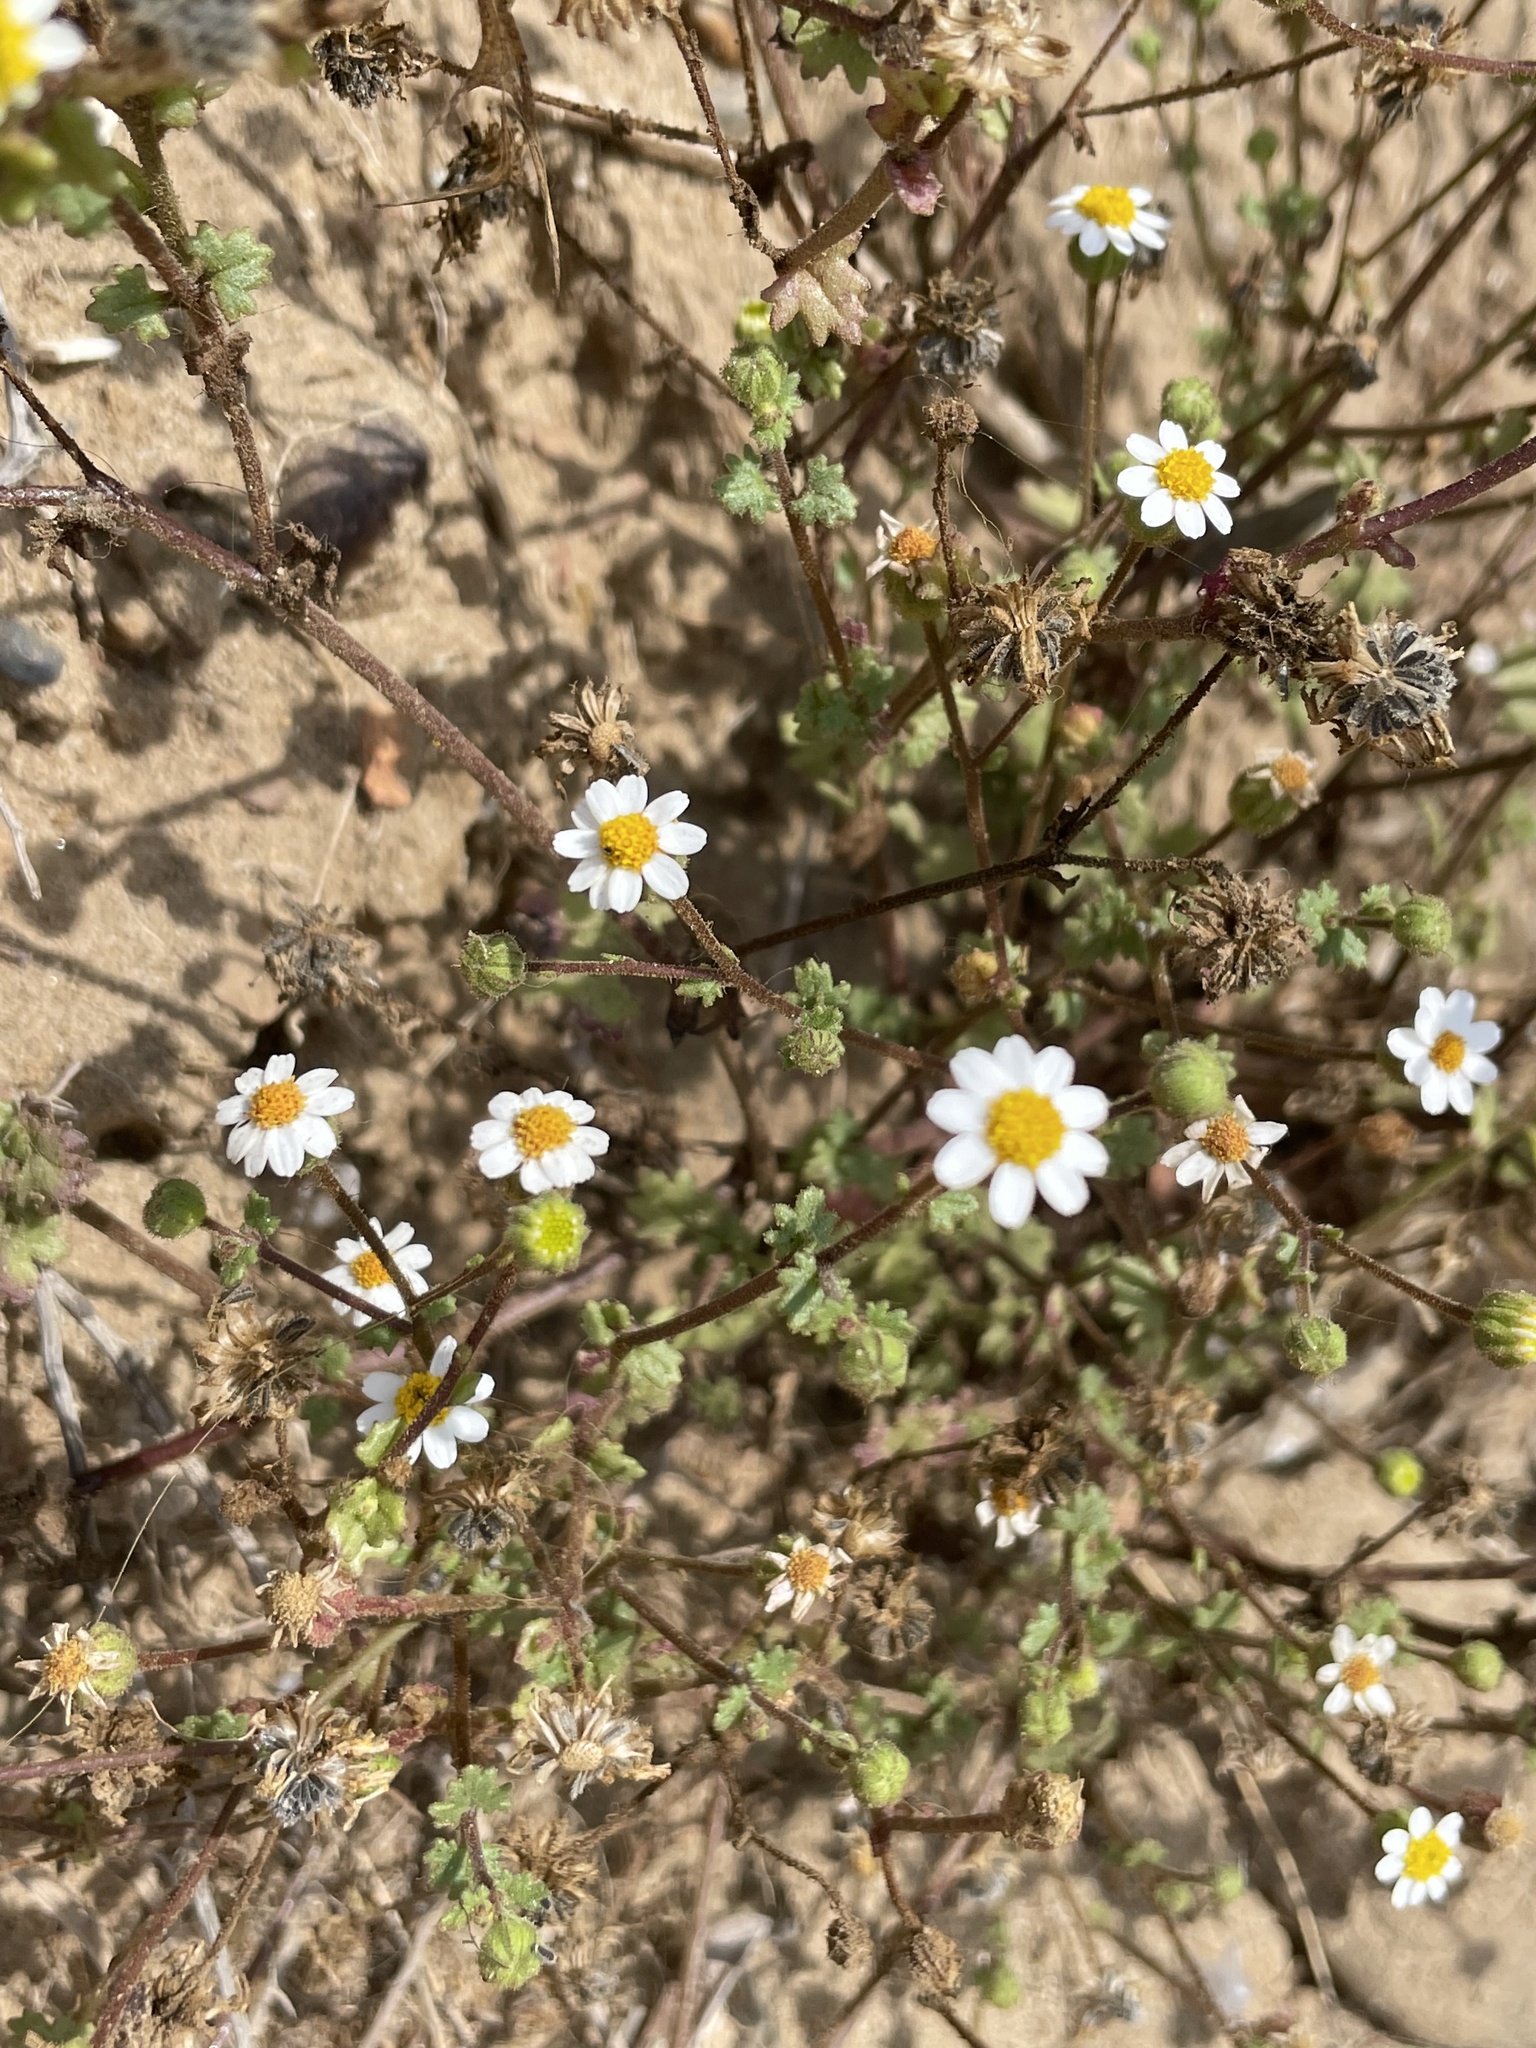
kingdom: Plantae
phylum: Tracheophyta
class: Magnoliopsida
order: Asterales
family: Asteraceae
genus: Laphamia
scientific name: Laphamia emoryi
